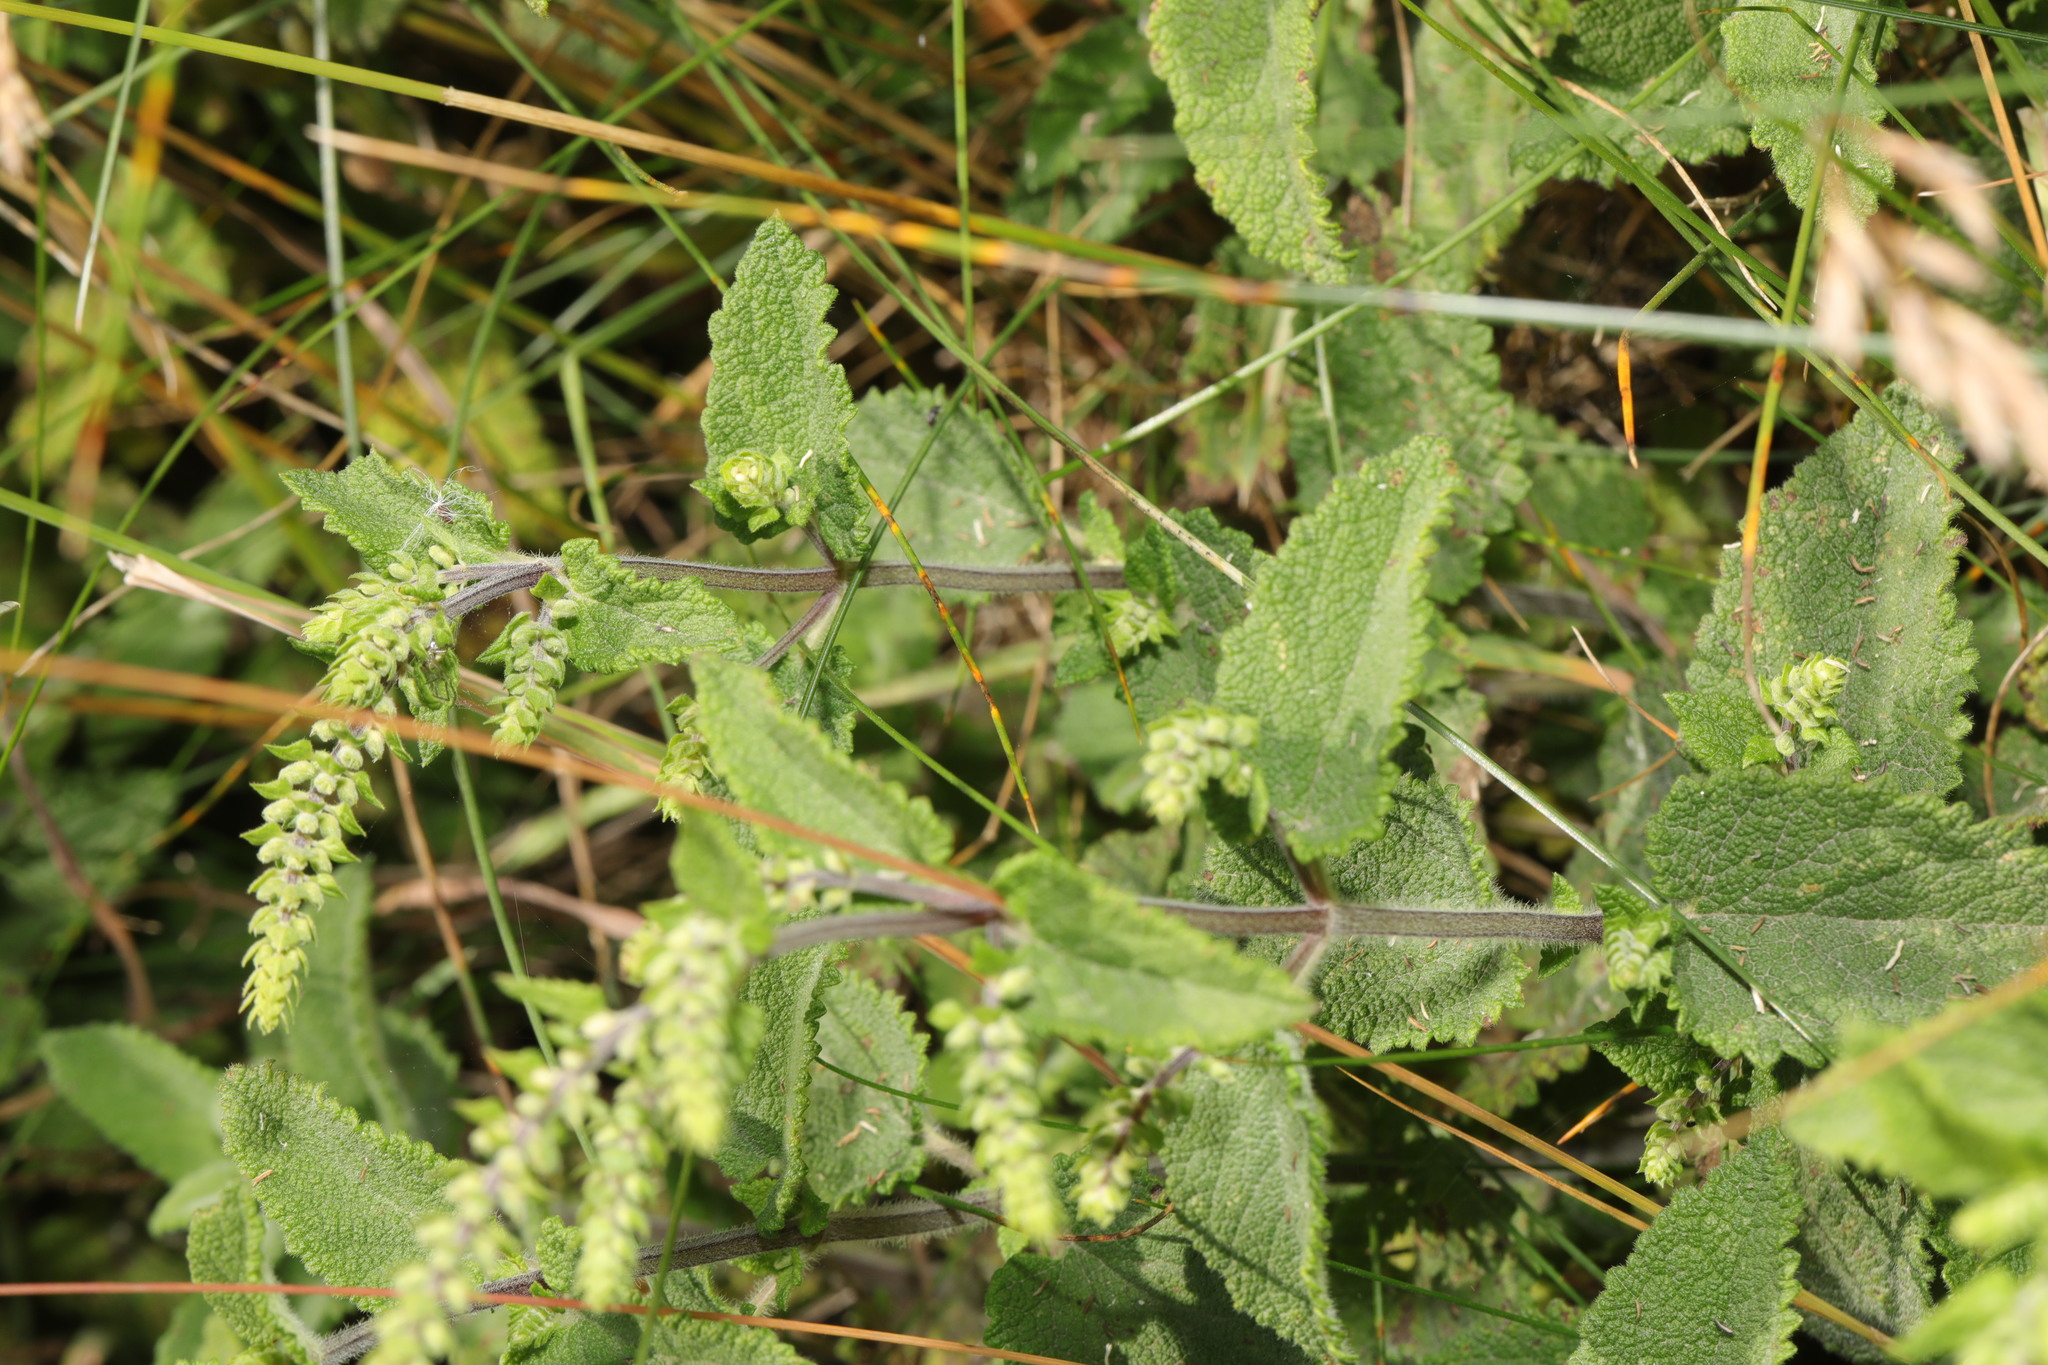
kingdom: Plantae
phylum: Tracheophyta
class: Magnoliopsida
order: Lamiales
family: Lamiaceae
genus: Teucrium
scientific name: Teucrium scorodonia
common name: Woodland germander
